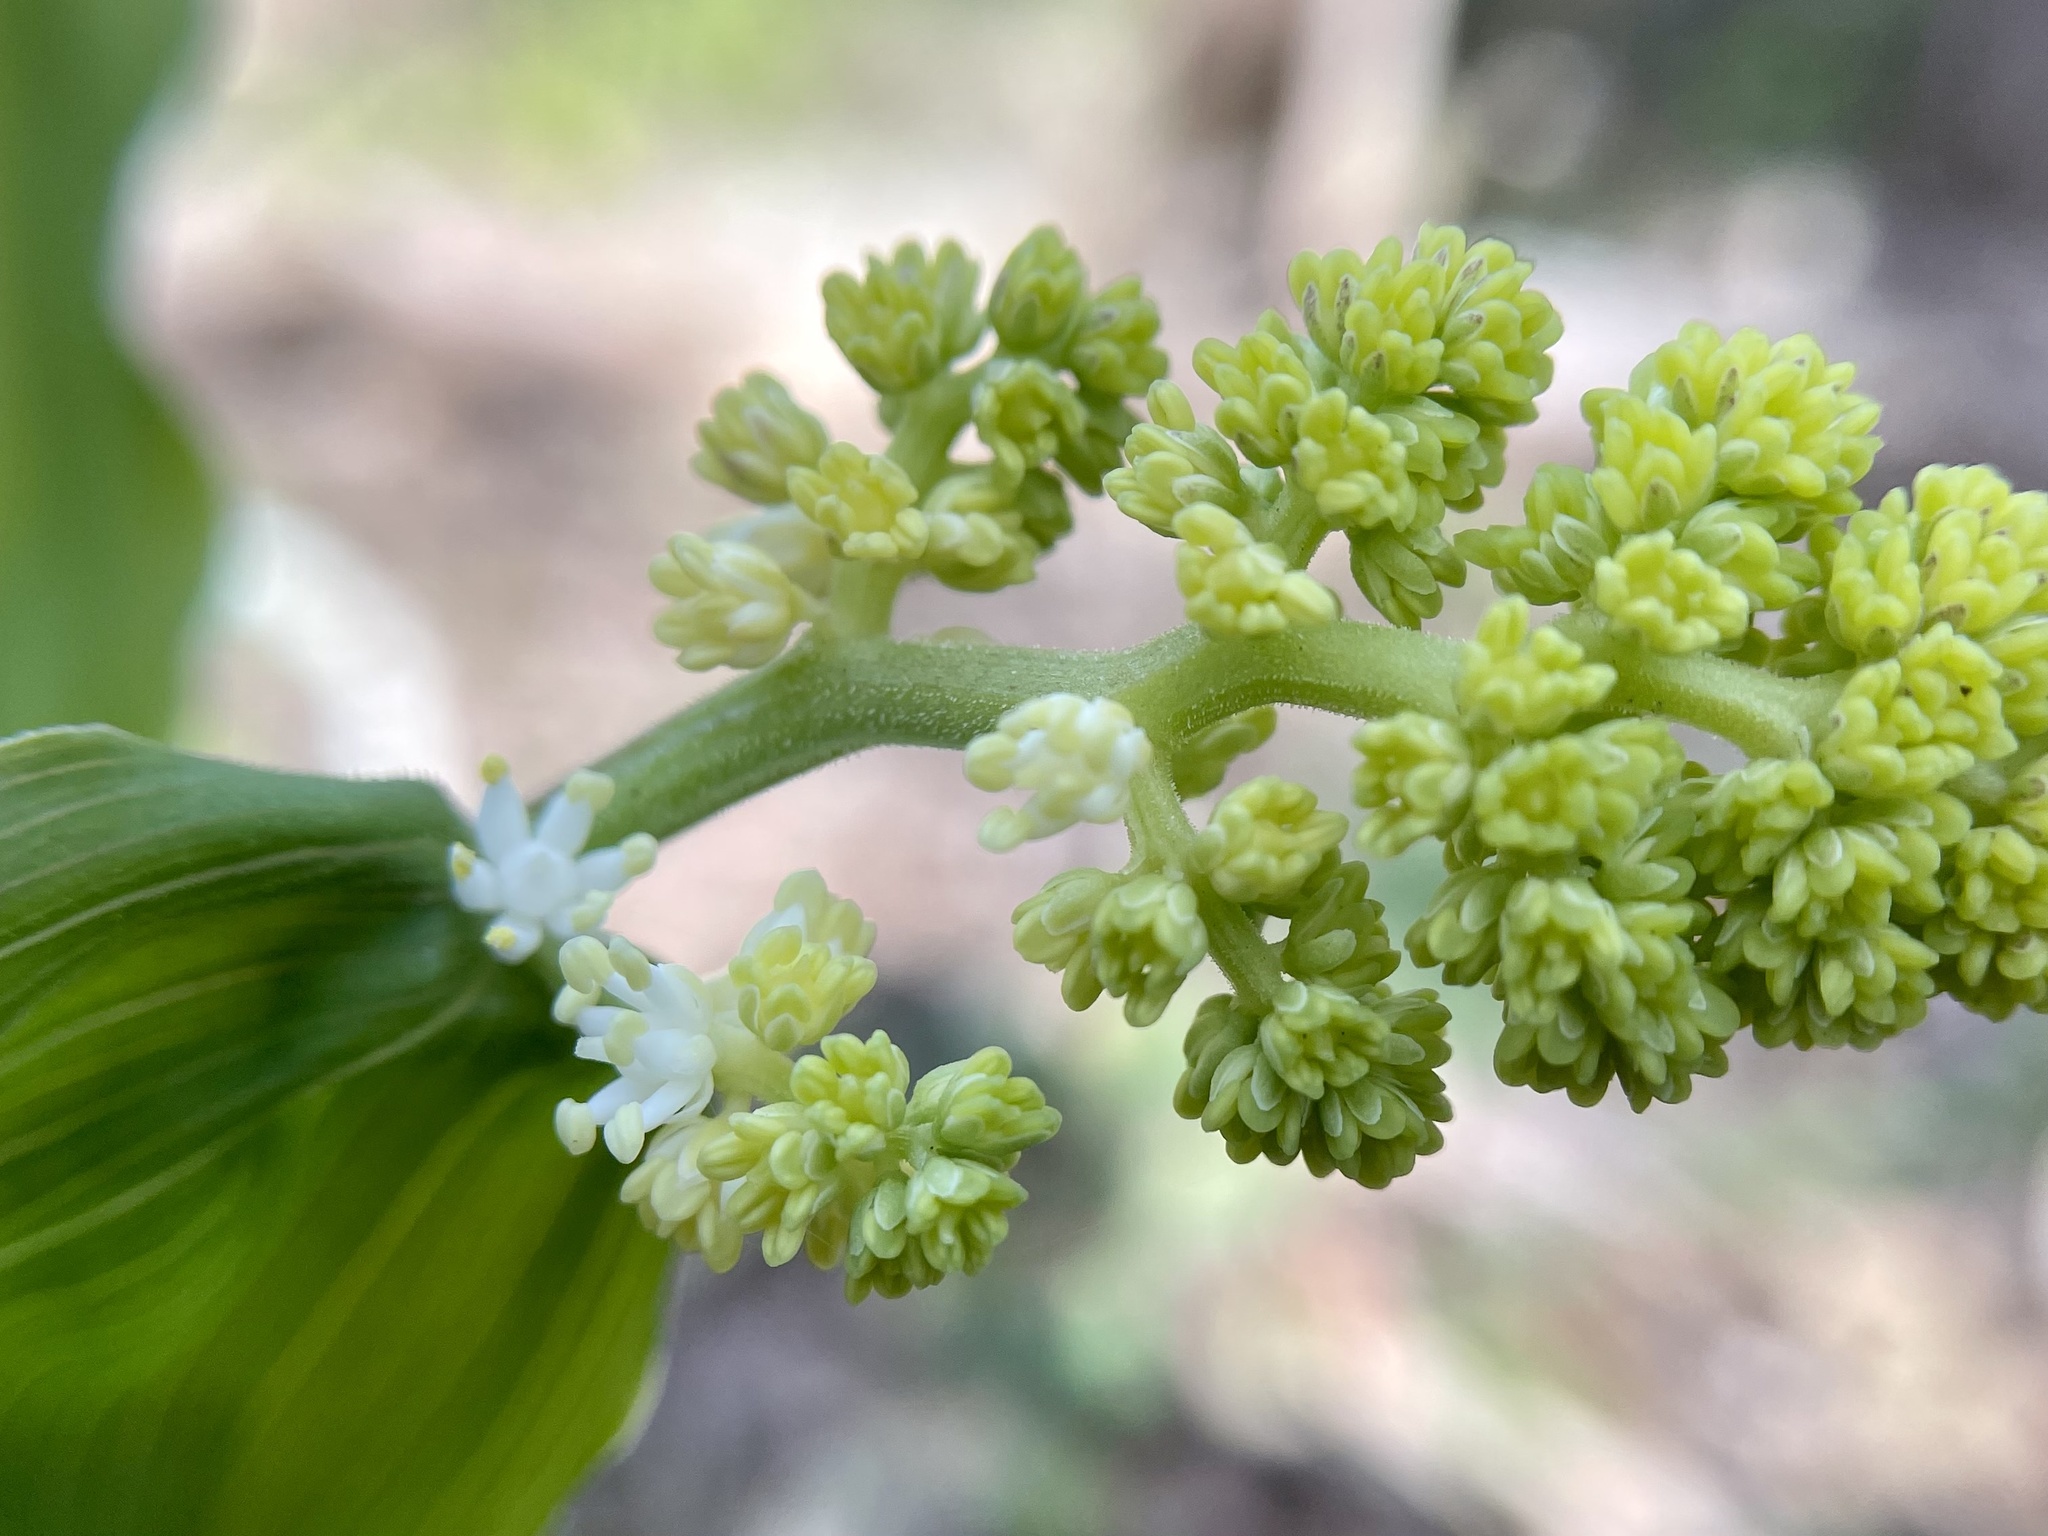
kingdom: Plantae
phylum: Tracheophyta
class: Liliopsida
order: Asparagales
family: Asparagaceae
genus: Maianthemum
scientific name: Maianthemum racemosum
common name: False spikenard
